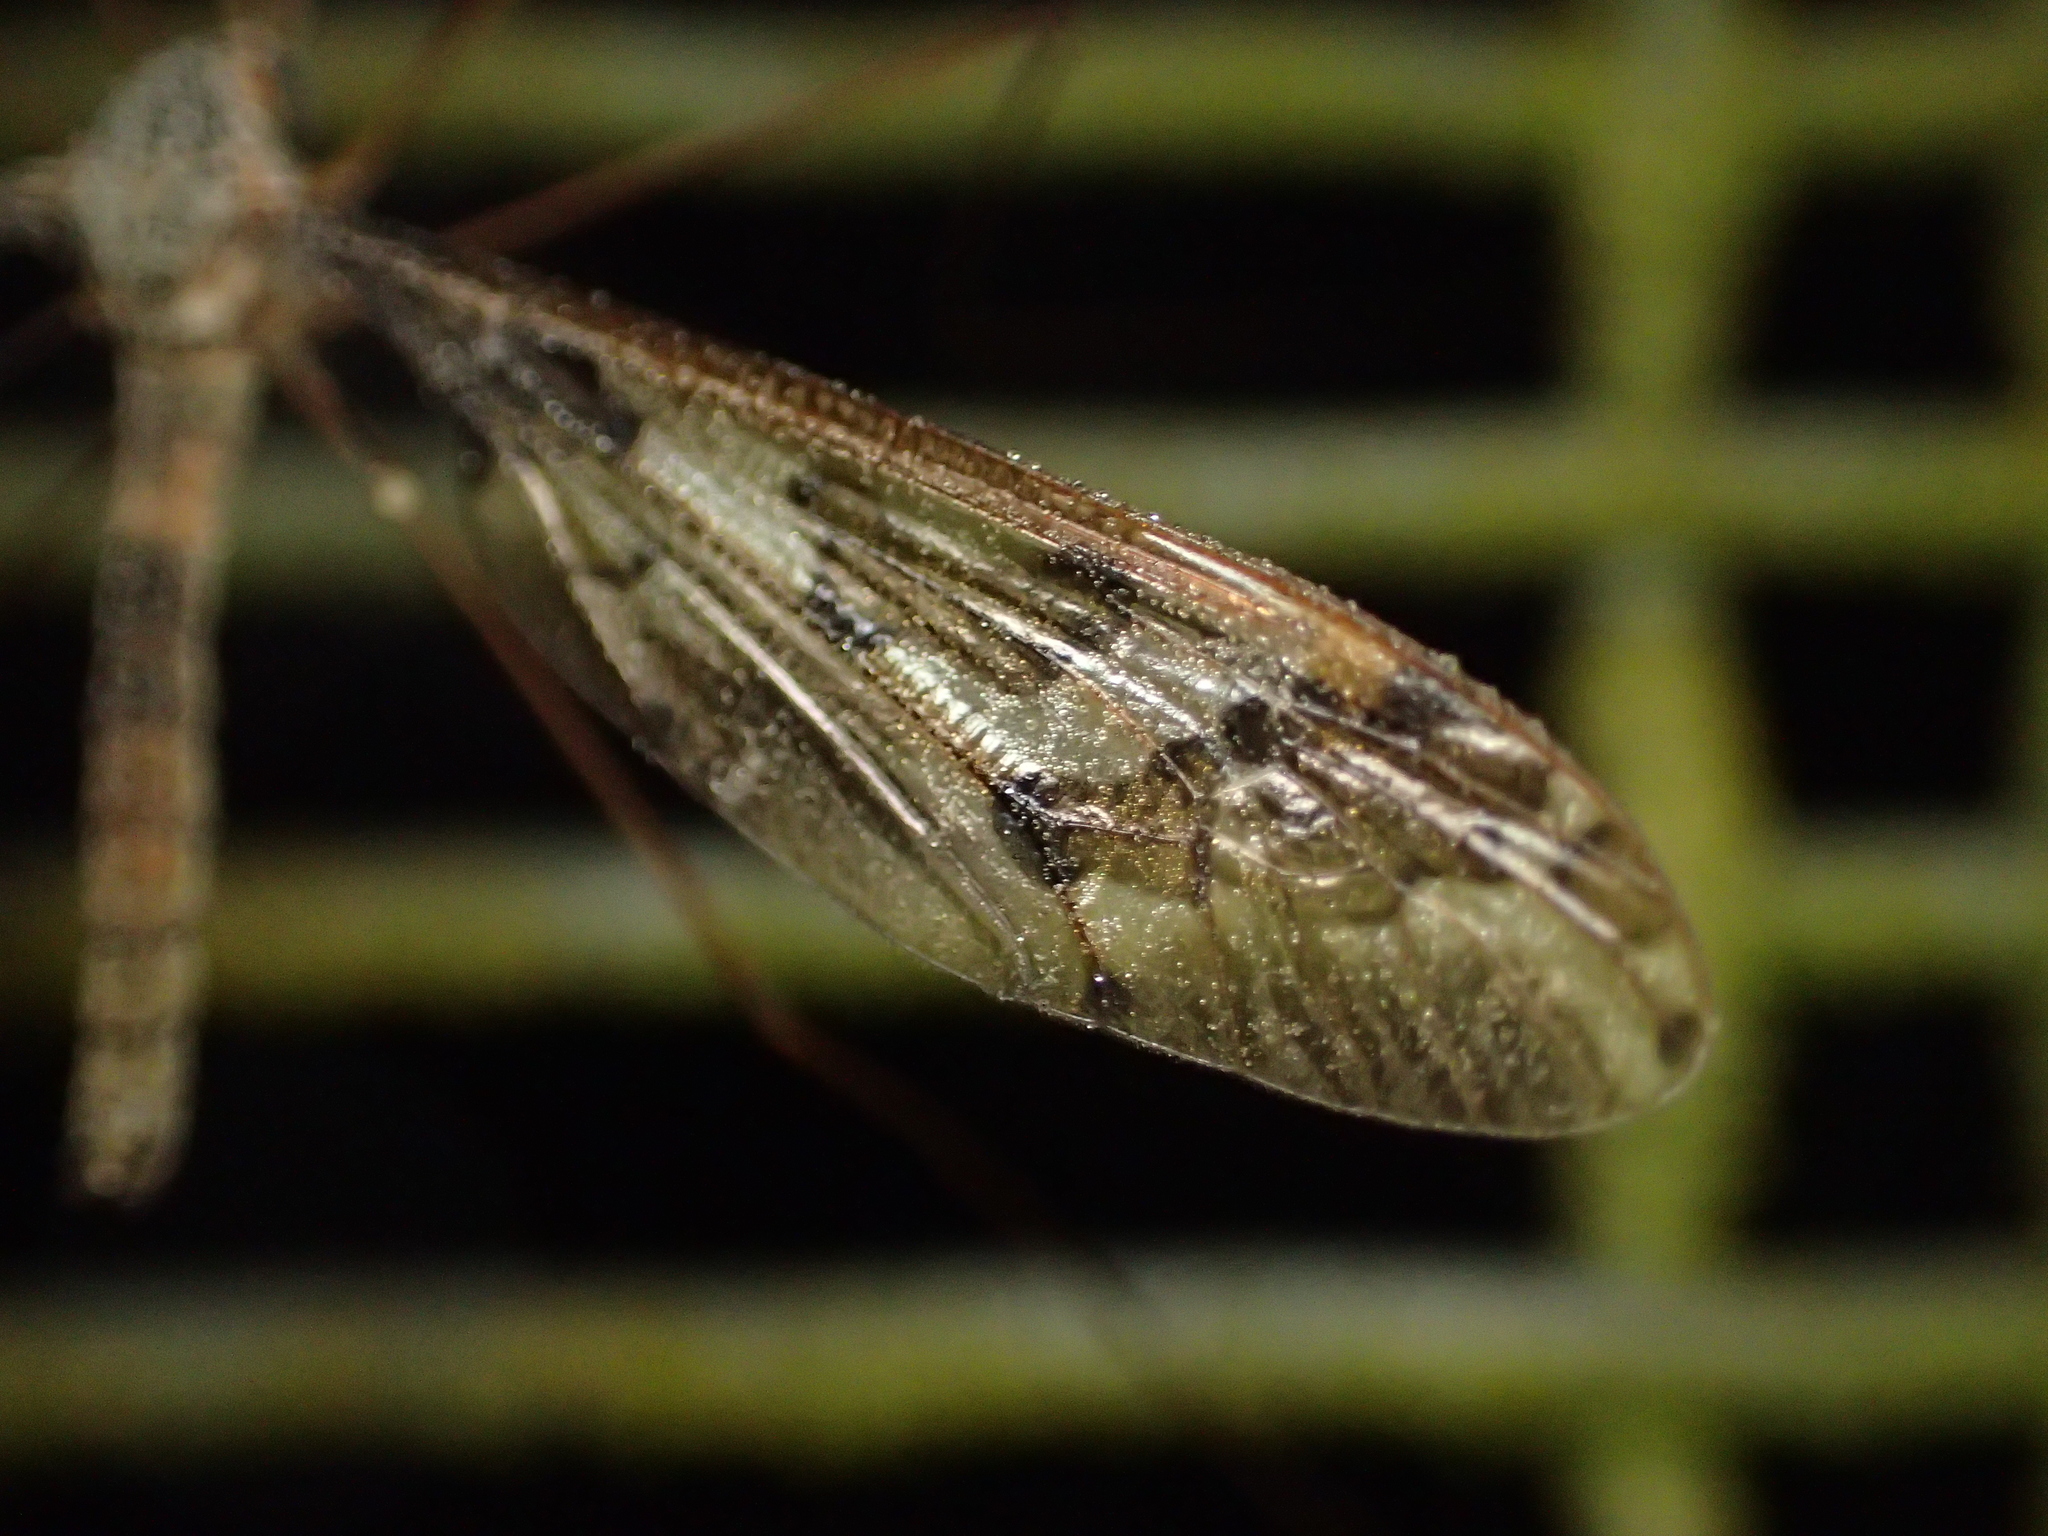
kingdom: Animalia
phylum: Arthropoda
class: Insecta
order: Diptera
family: Tipulidae
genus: Leptotarsus
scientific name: Leptotarsus binotatus
